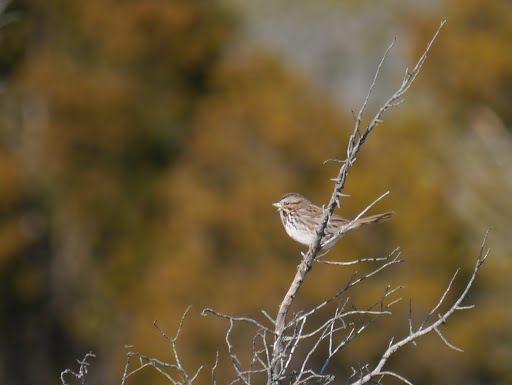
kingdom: Animalia
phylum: Chordata
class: Aves
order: Passeriformes
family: Passerellidae
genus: Melospiza
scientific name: Melospiza melodia
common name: Song sparrow
